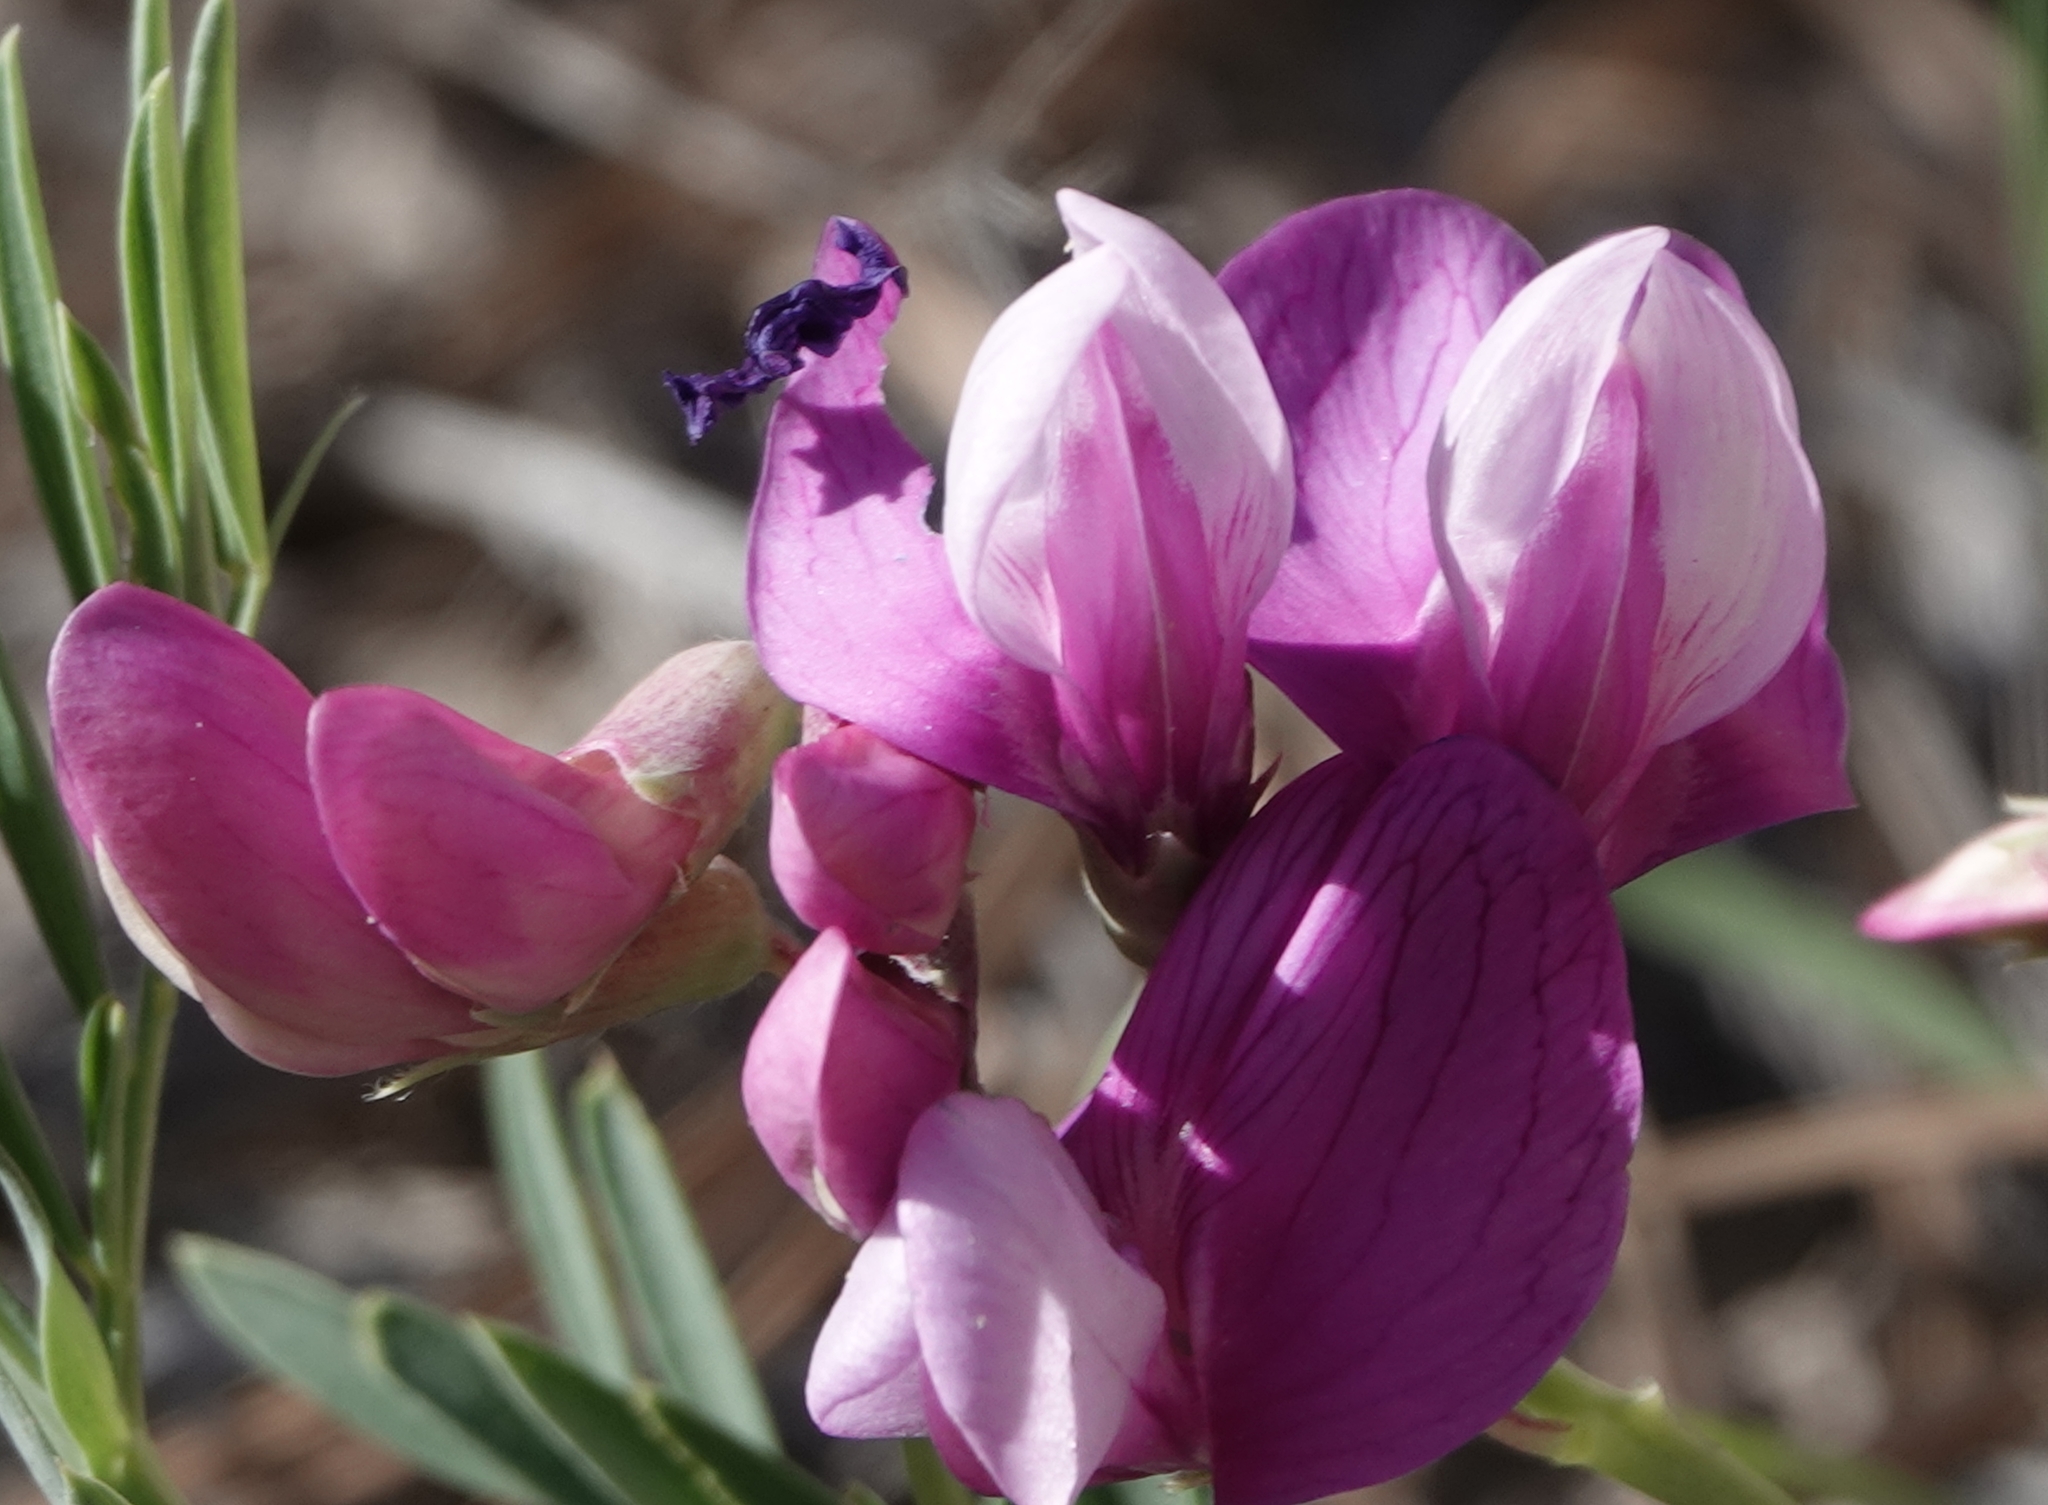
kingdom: Plantae
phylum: Tracheophyta
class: Magnoliopsida
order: Fabales
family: Fabaceae
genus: Lathyrus
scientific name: Lathyrus
